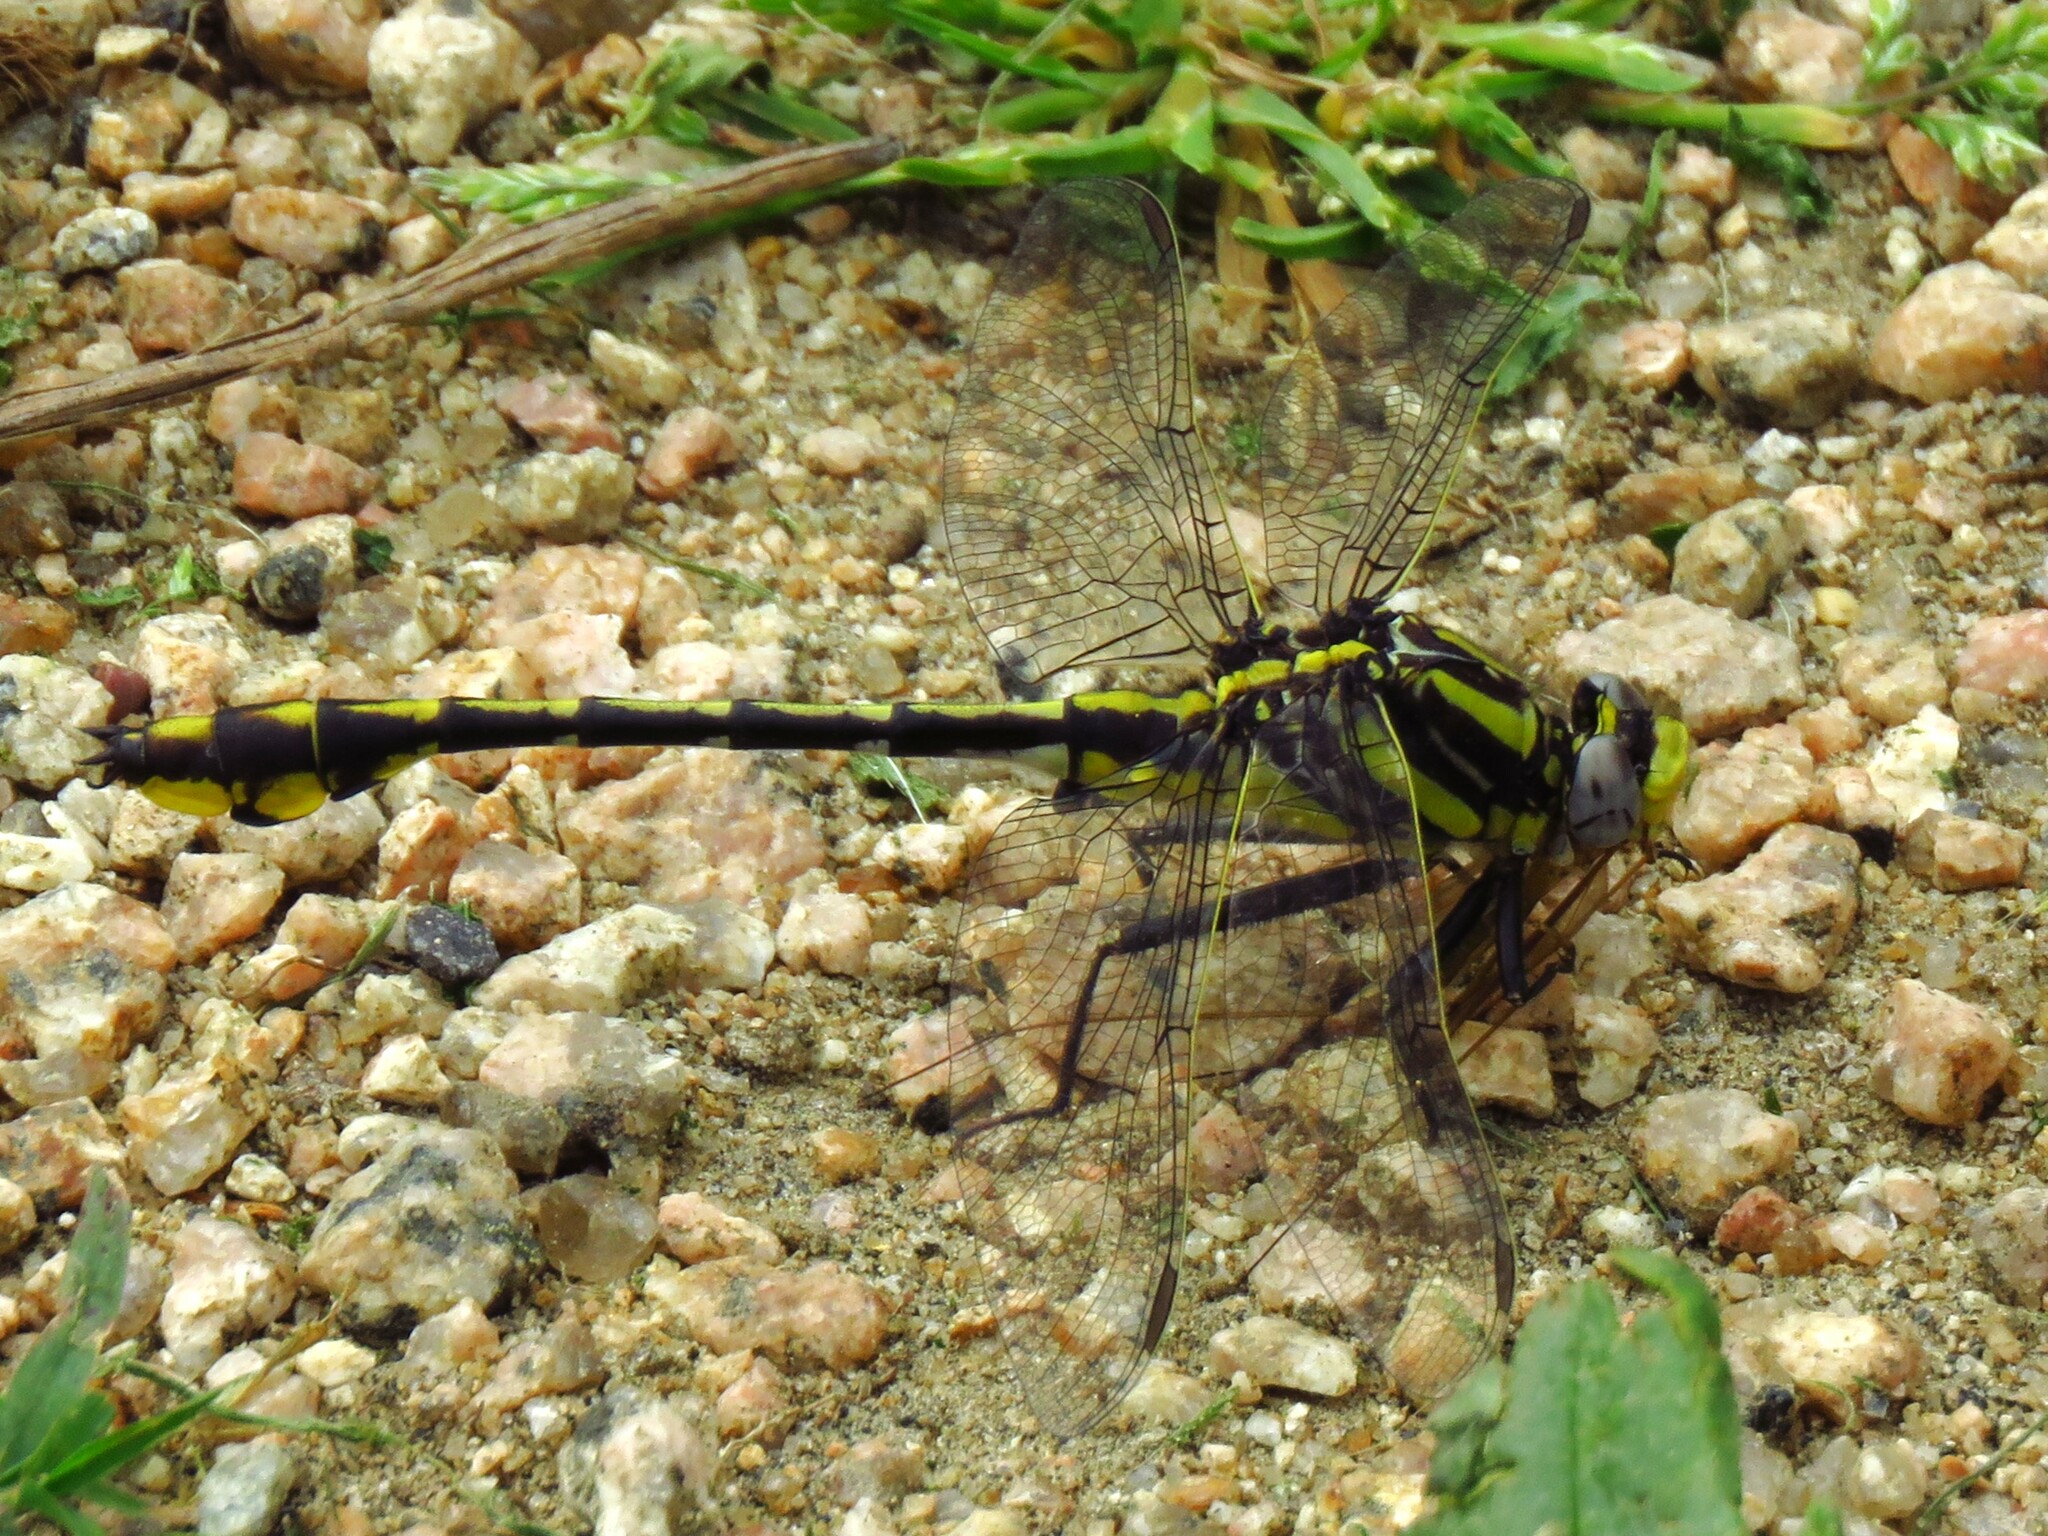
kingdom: Animalia
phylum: Arthropoda
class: Insecta
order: Odonata
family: Gomphidae
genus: Gomphurus
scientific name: Gomphurus externus
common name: Plains clubtail
